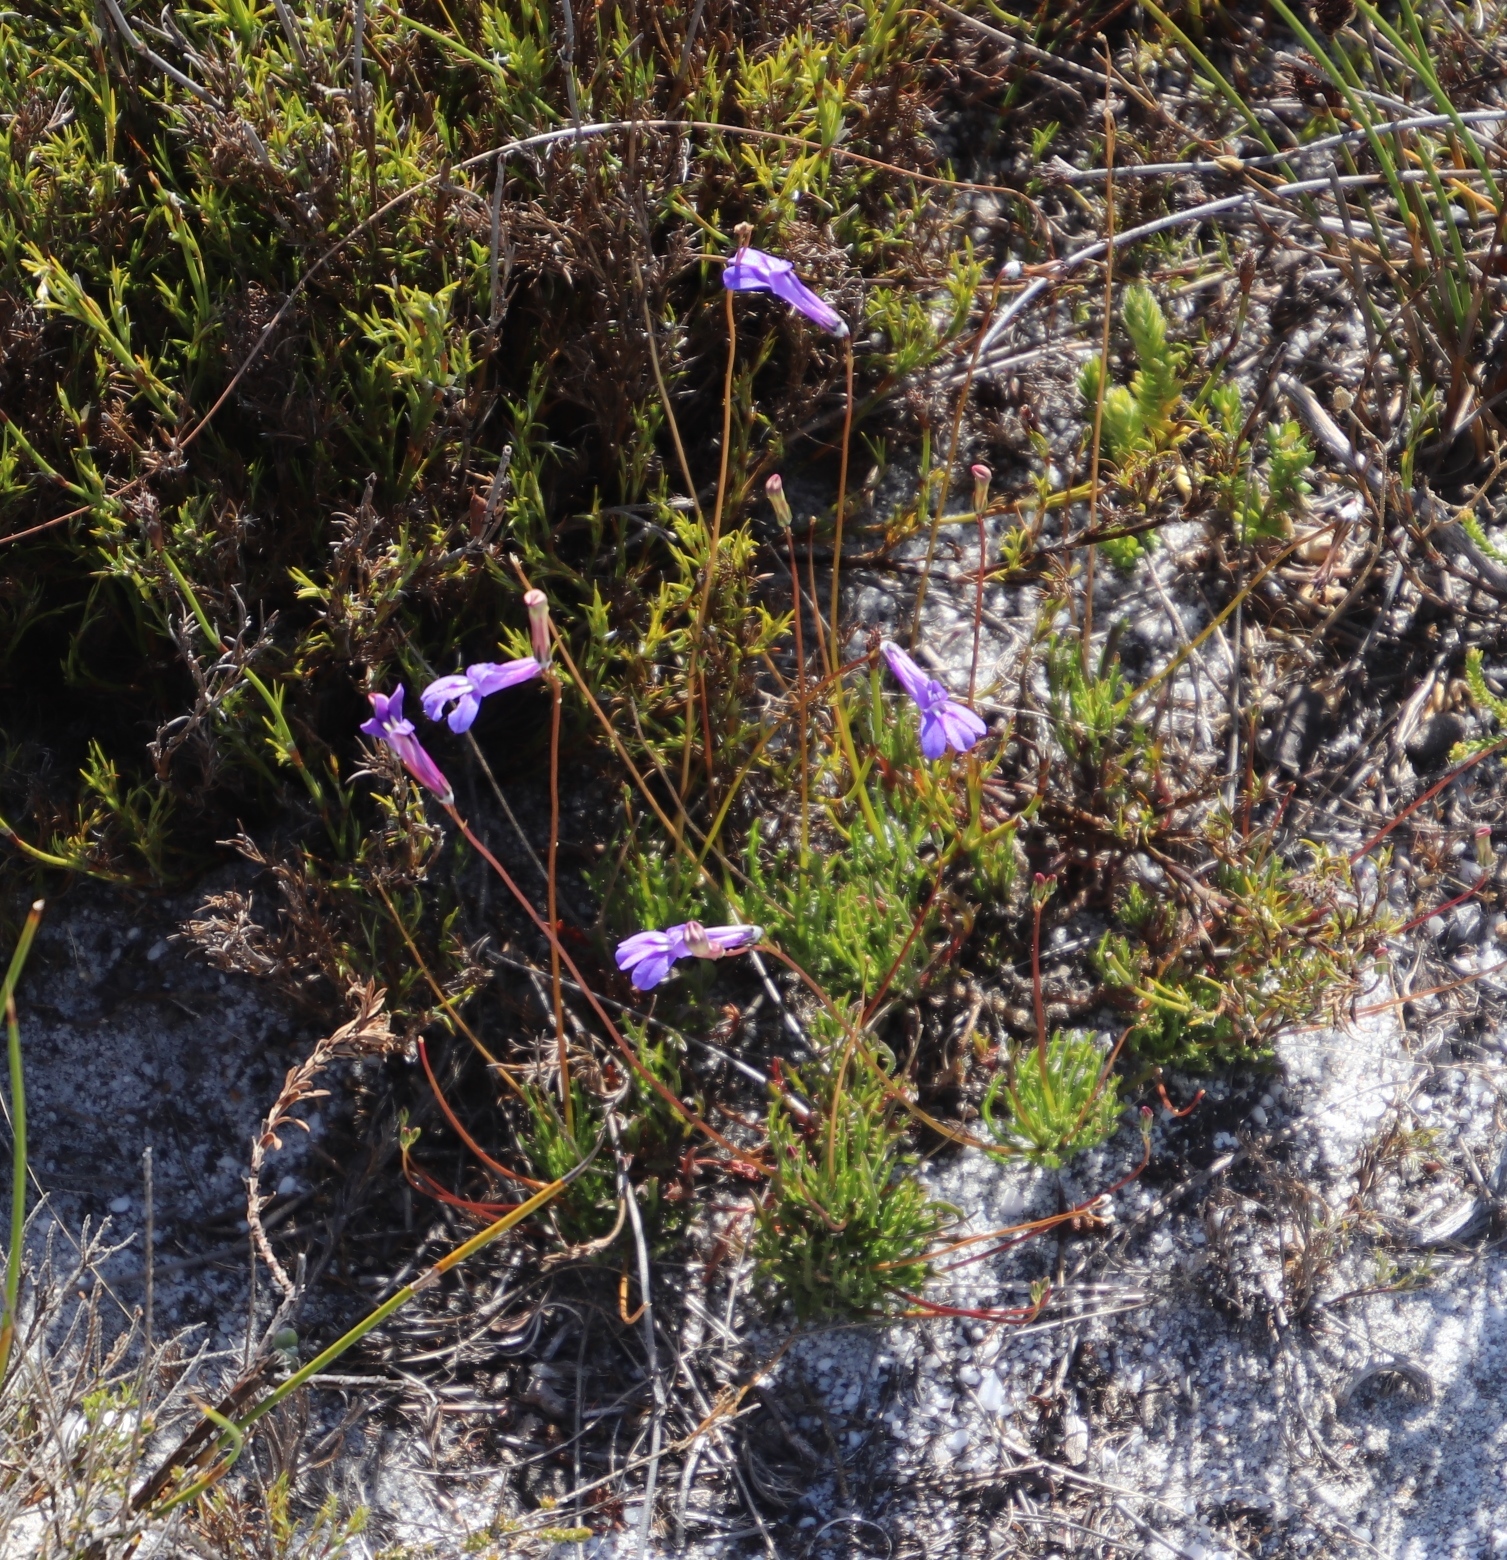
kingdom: Plantae
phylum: Tracheophyta
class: Magnoliopsida
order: Asterales
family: Campanulaceae
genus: Lobelia
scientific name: Lobelia coronopifolia
